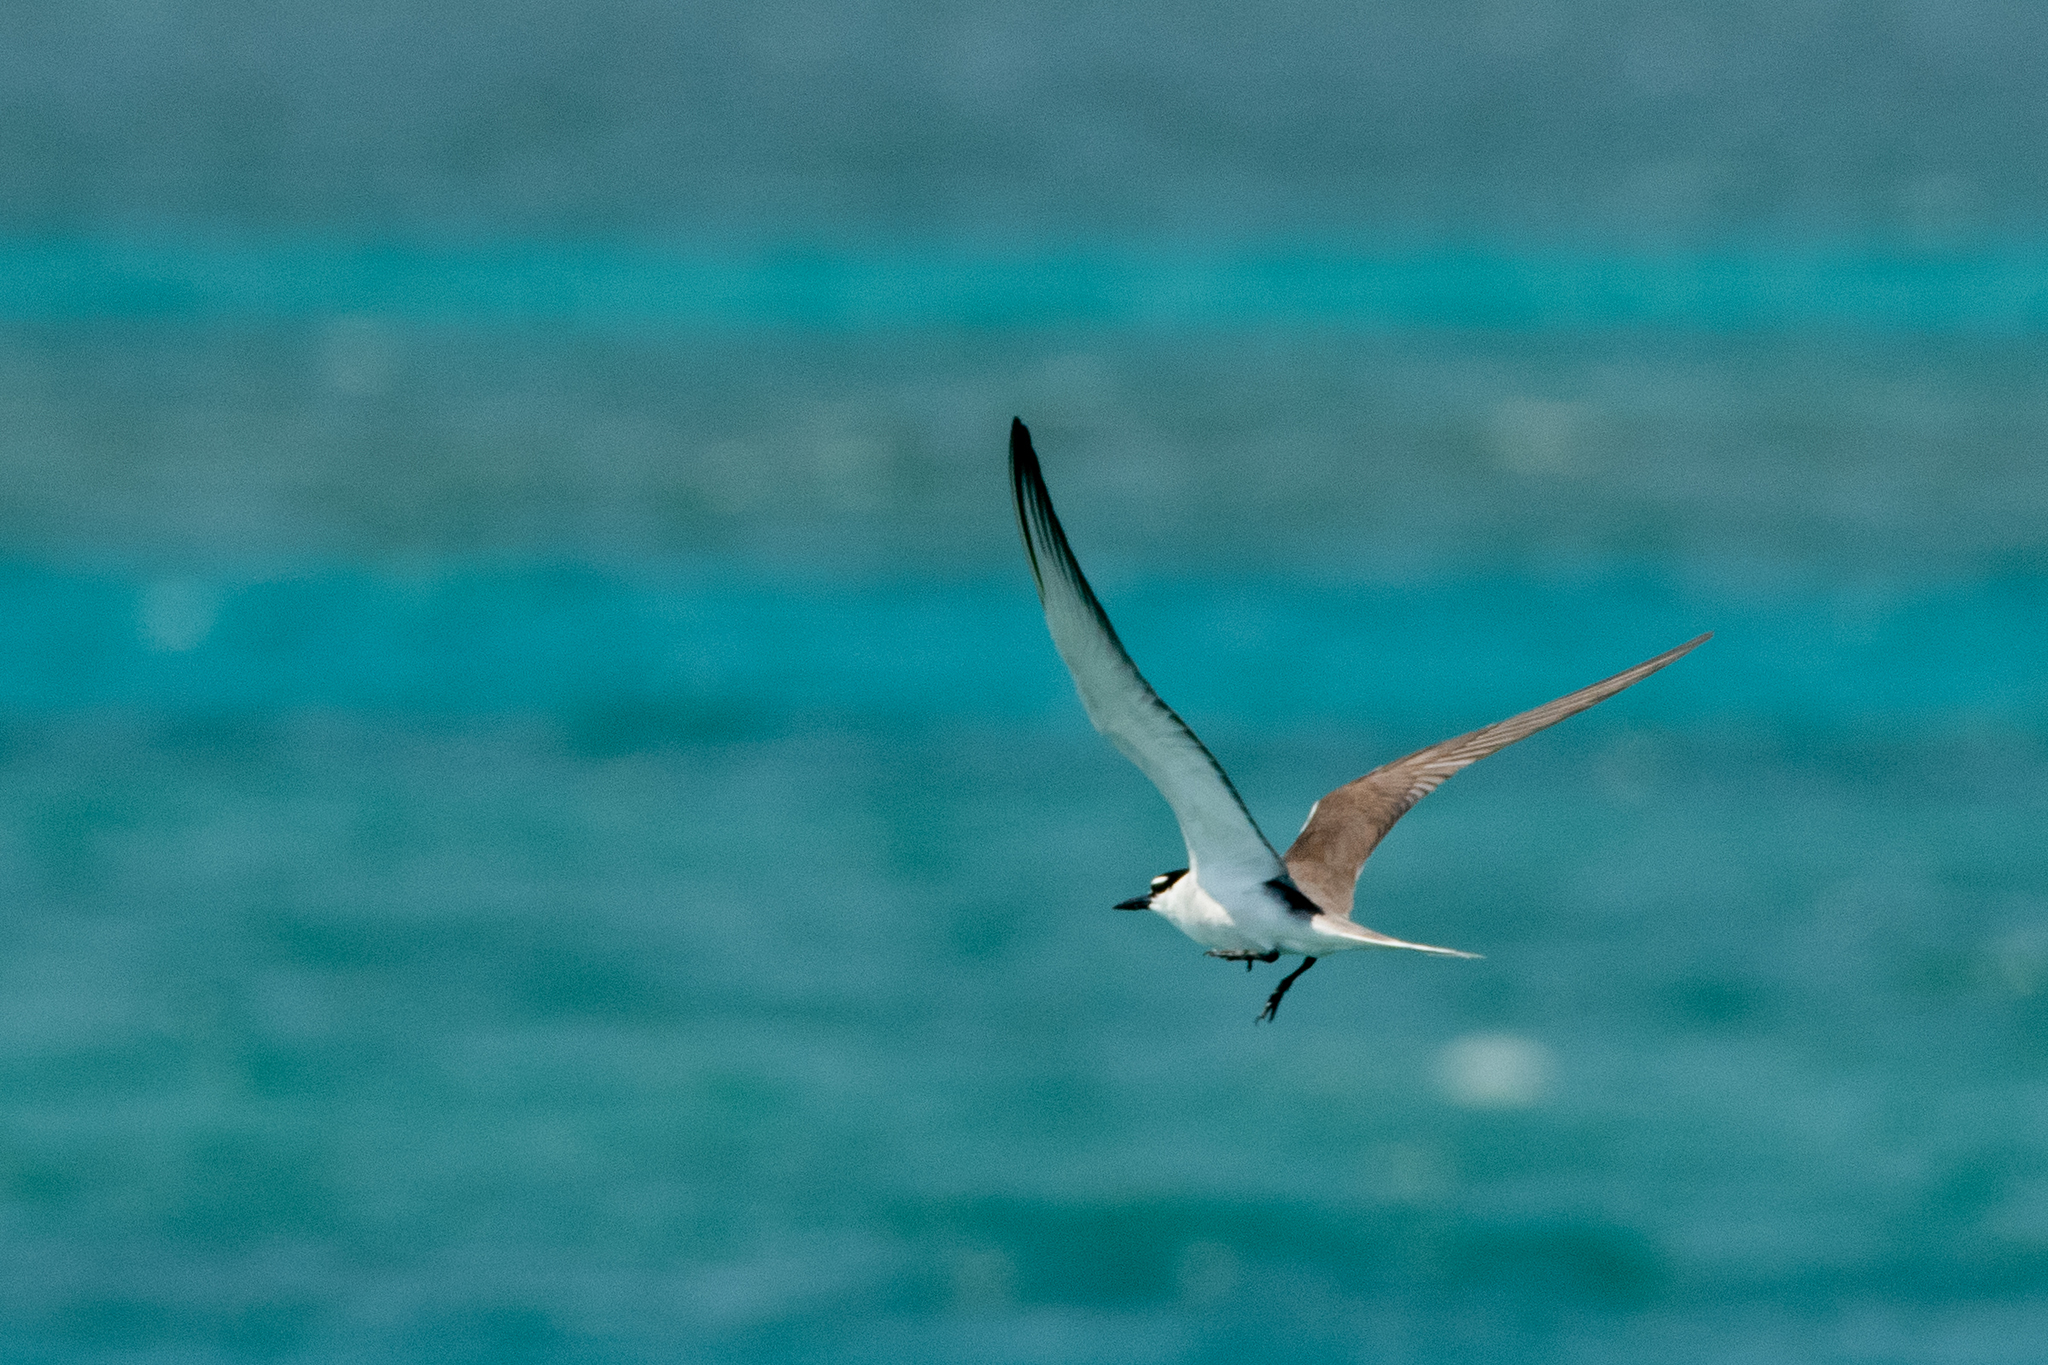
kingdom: Animalia
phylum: Chordata
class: Aves
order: Charadriiformes
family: Laridae
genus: Onychoprion
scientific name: Onychoprion anaethetus
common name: Bridled tern
